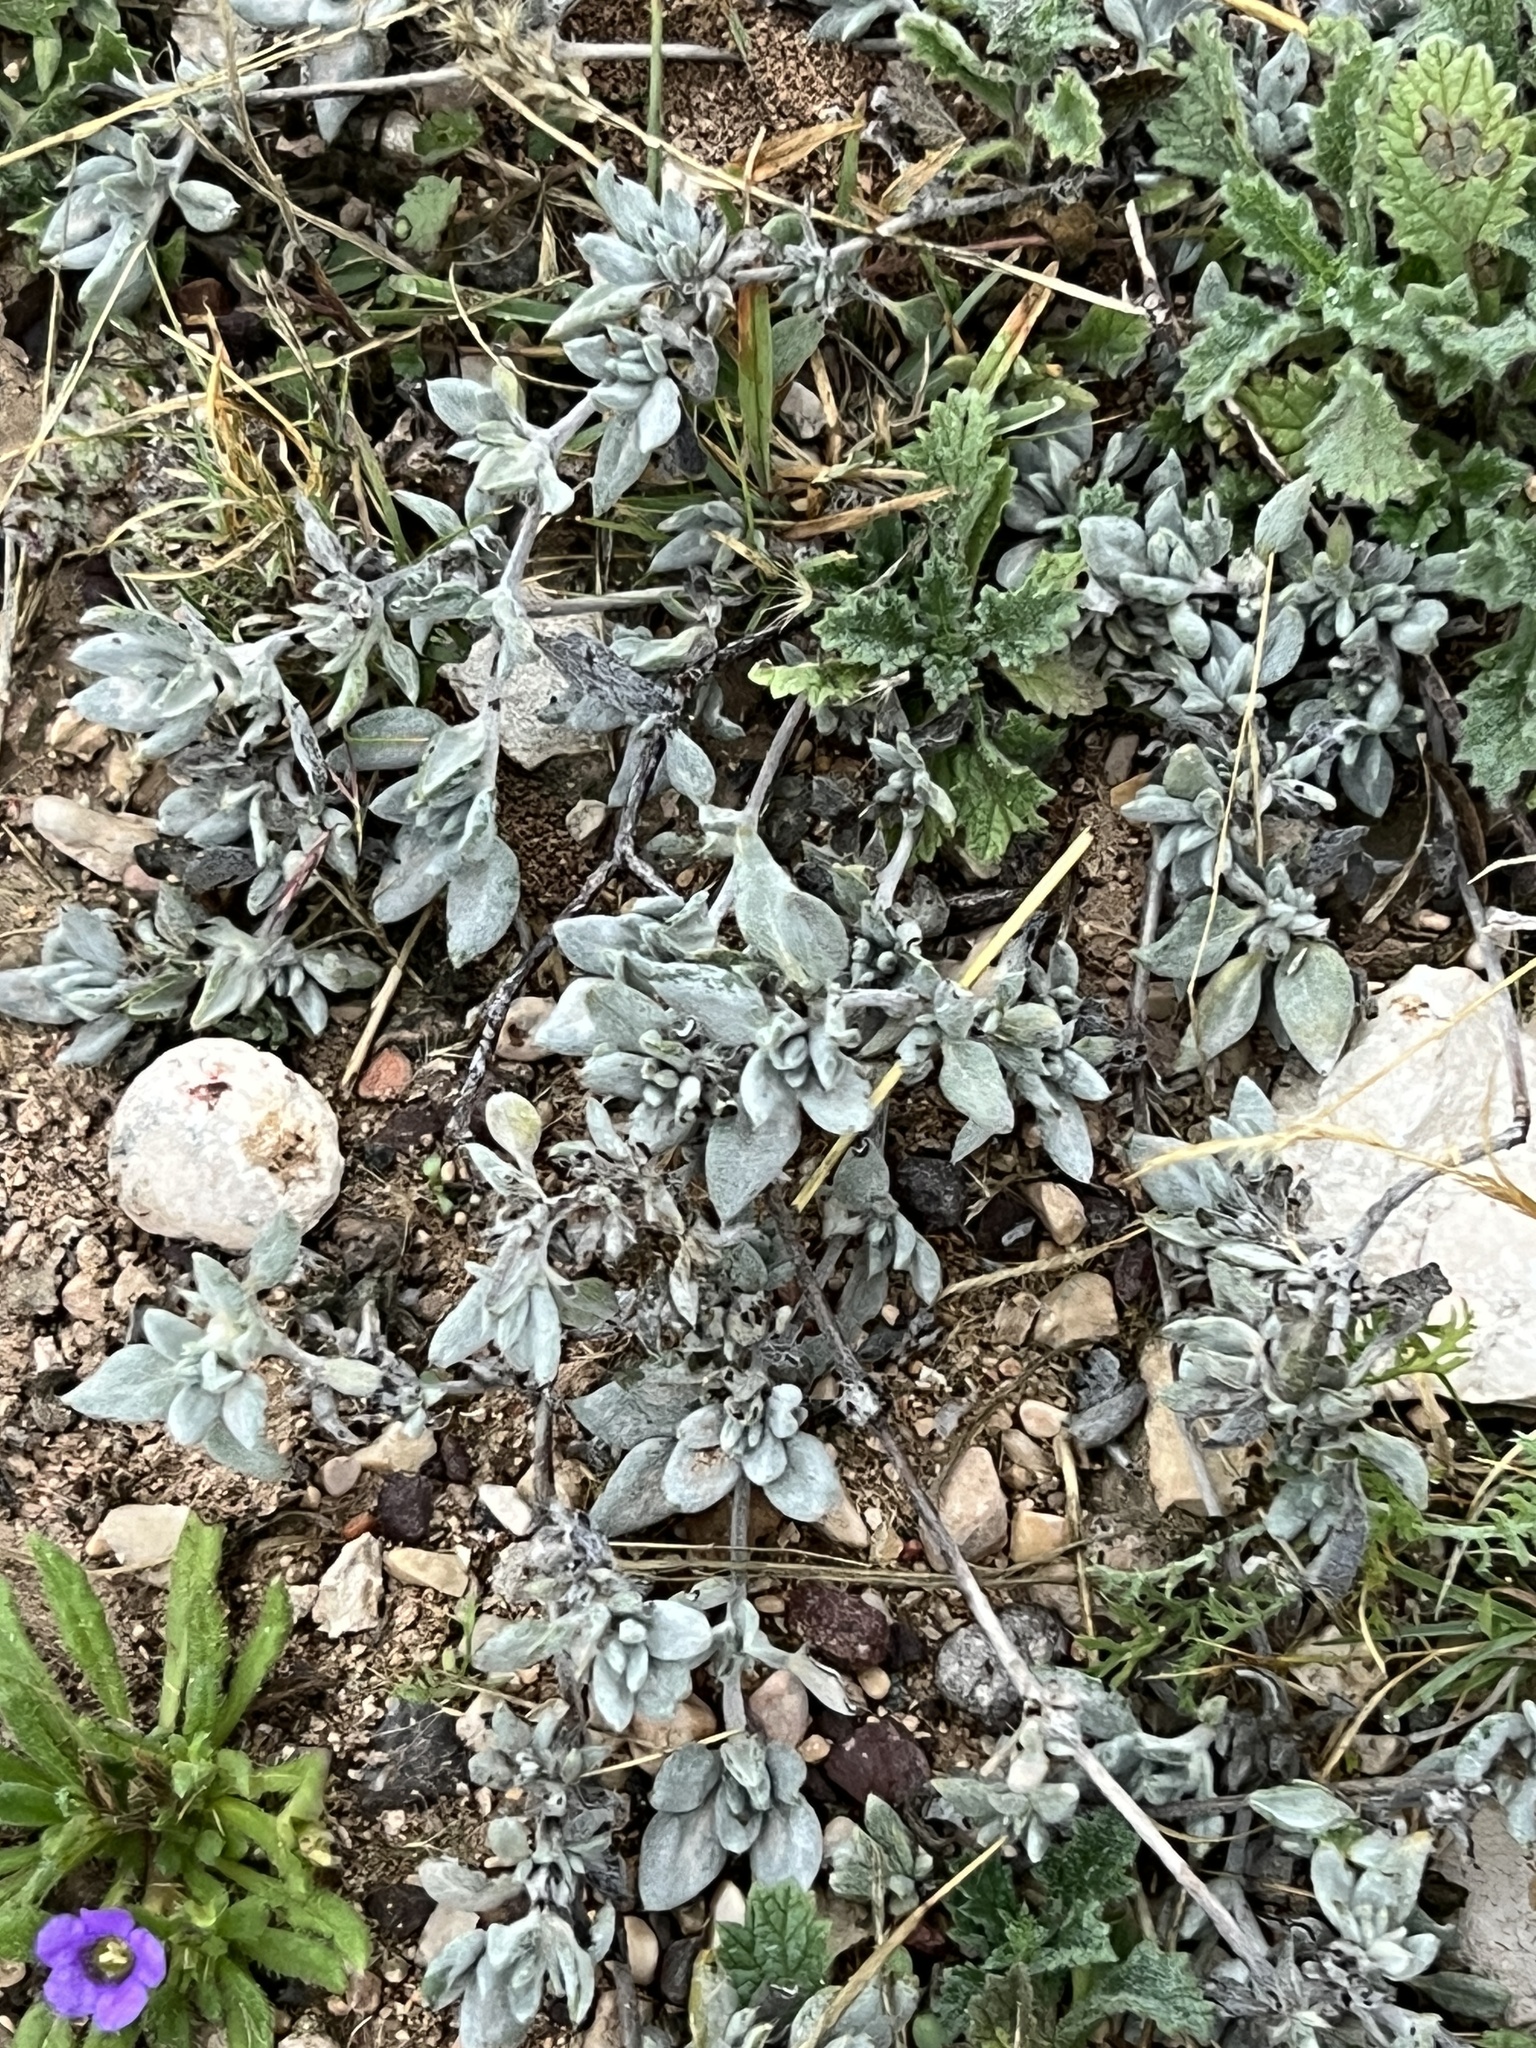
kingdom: Plantae
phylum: Tracheophyta
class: Magnoliopsida
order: Boraginales
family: Ehretiaceae
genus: Tiquilia
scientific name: Tiquilia canescens
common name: Hairy tiquilia
